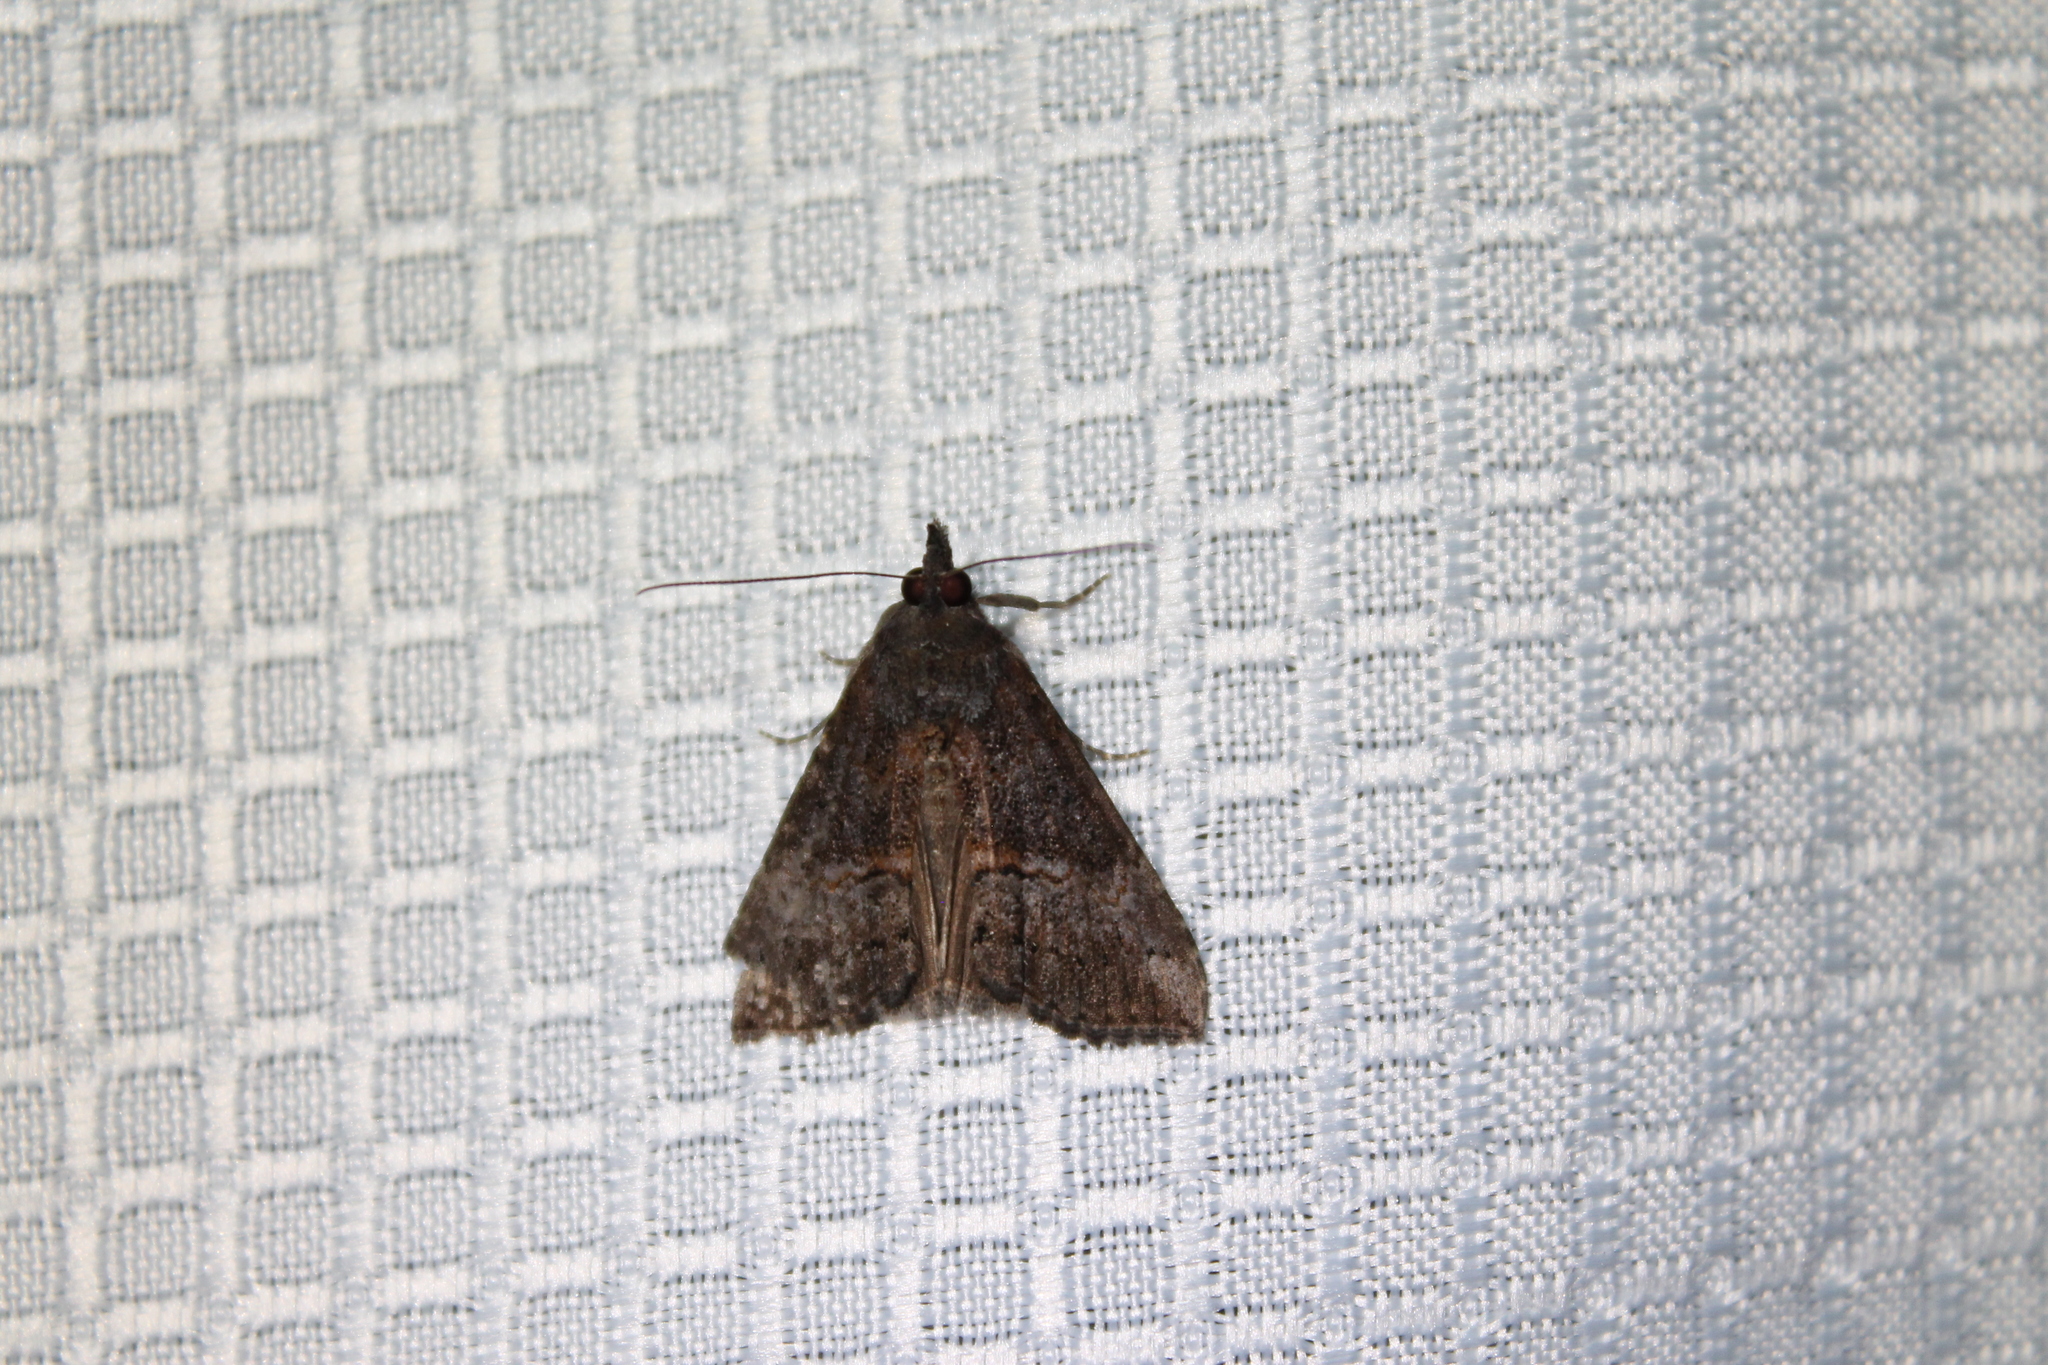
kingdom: Animalia
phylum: Arthropoda
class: Insecta
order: Lepidoptera
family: Erebidae
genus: Hypena
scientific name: Hypena scabra
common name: Green cloverworm
